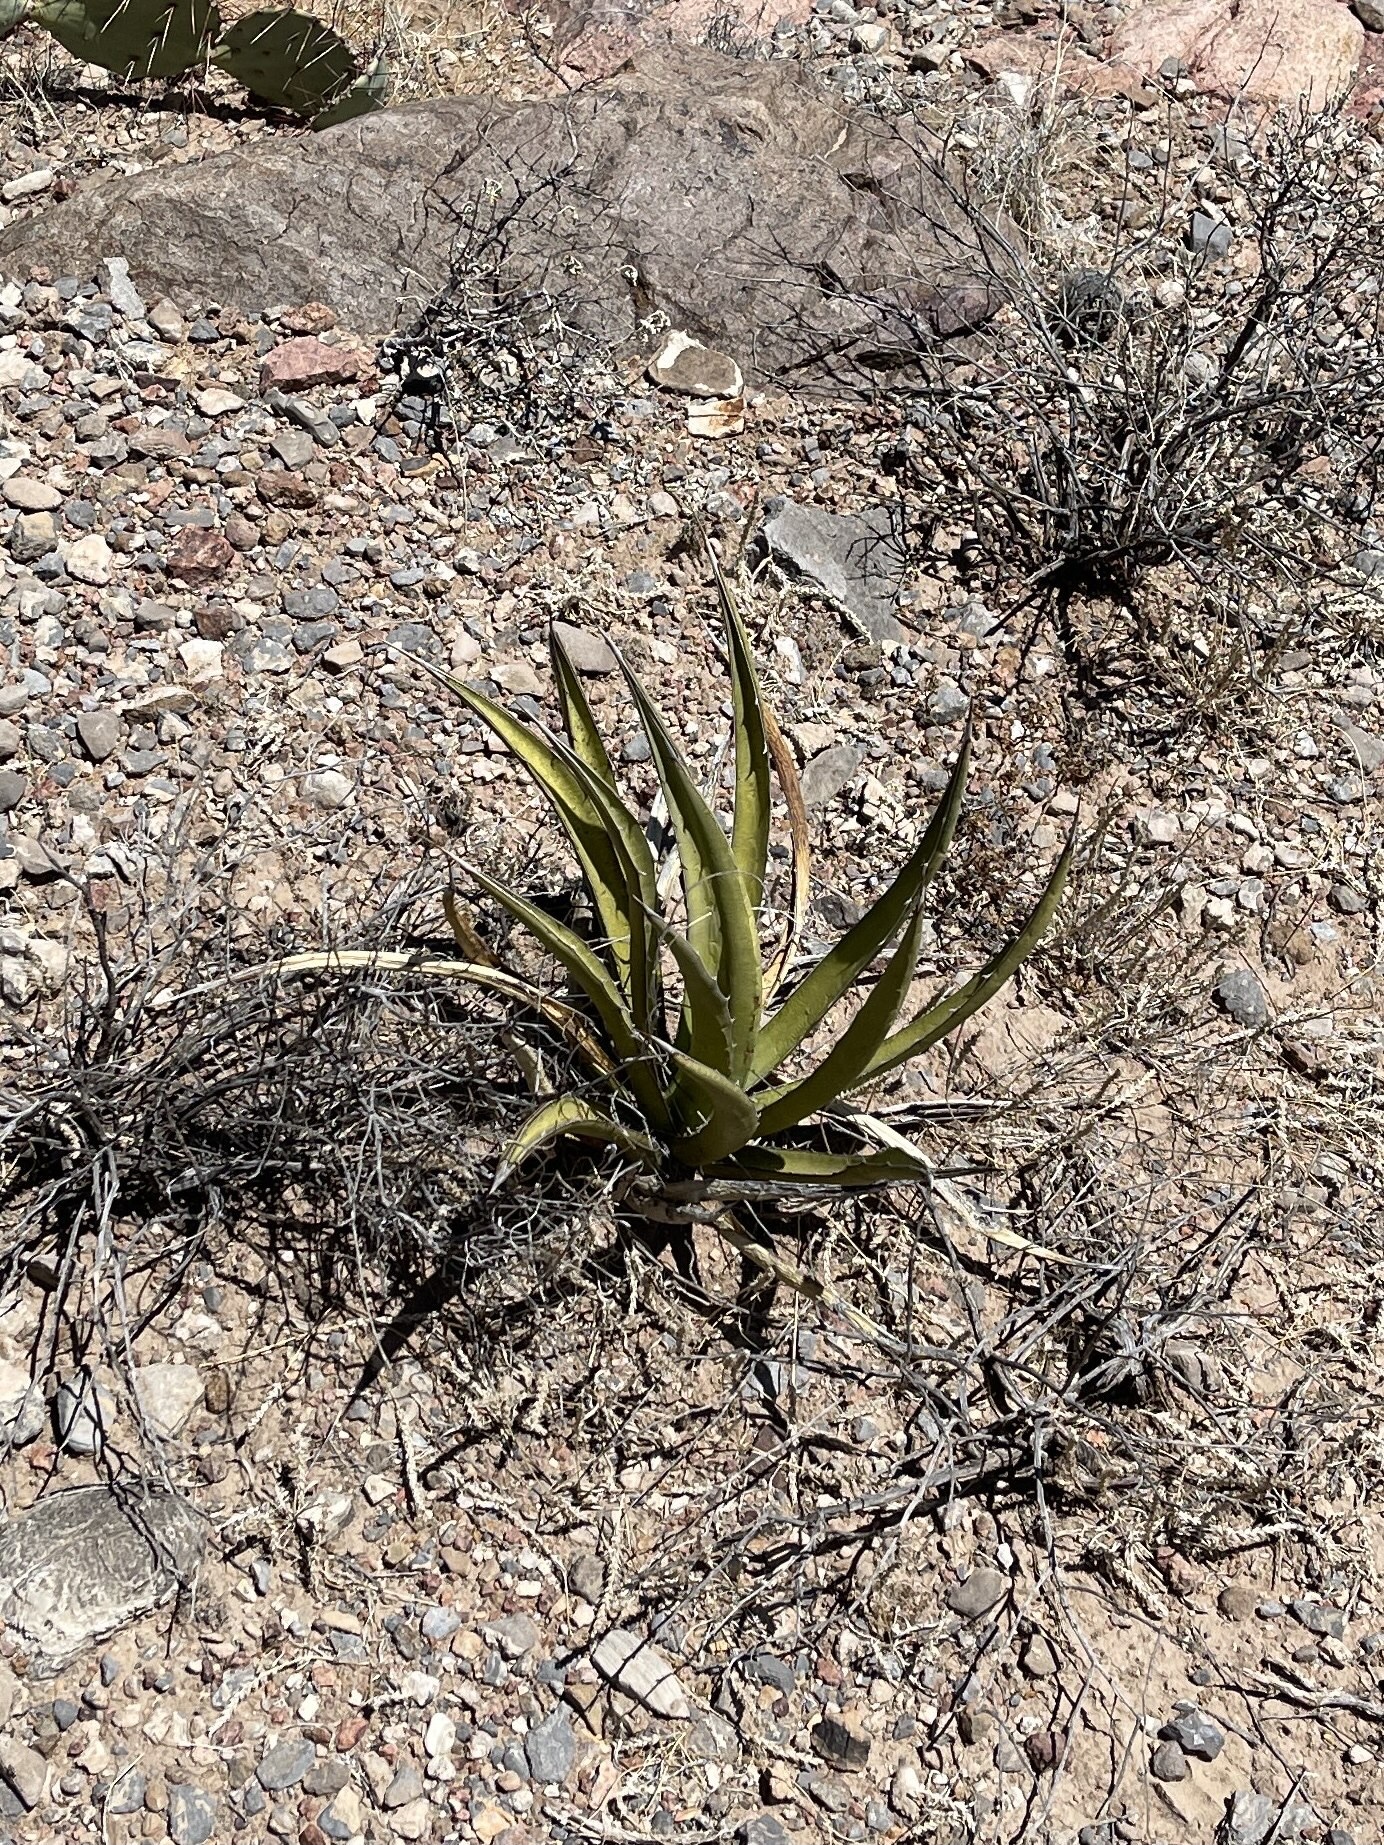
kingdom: Plantae
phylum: Tracheophyta
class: Liliopsida
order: Asparagales
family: Asparagaceae
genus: Agave
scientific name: Agave lechuguilla
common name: Lecheguilla agave
